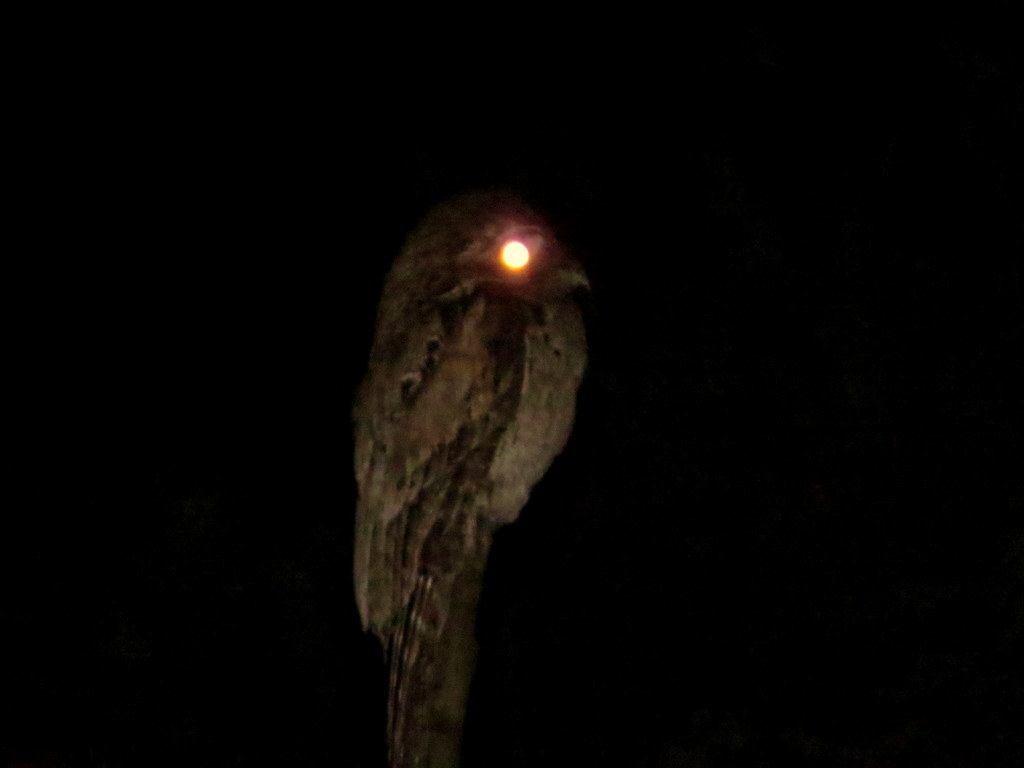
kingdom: Animalia
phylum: Chordata
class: Aves
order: Nyctibiiformes
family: Nyctibiidae
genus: Nyctibius
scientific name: Nyctibius griseus
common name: Common potoo
